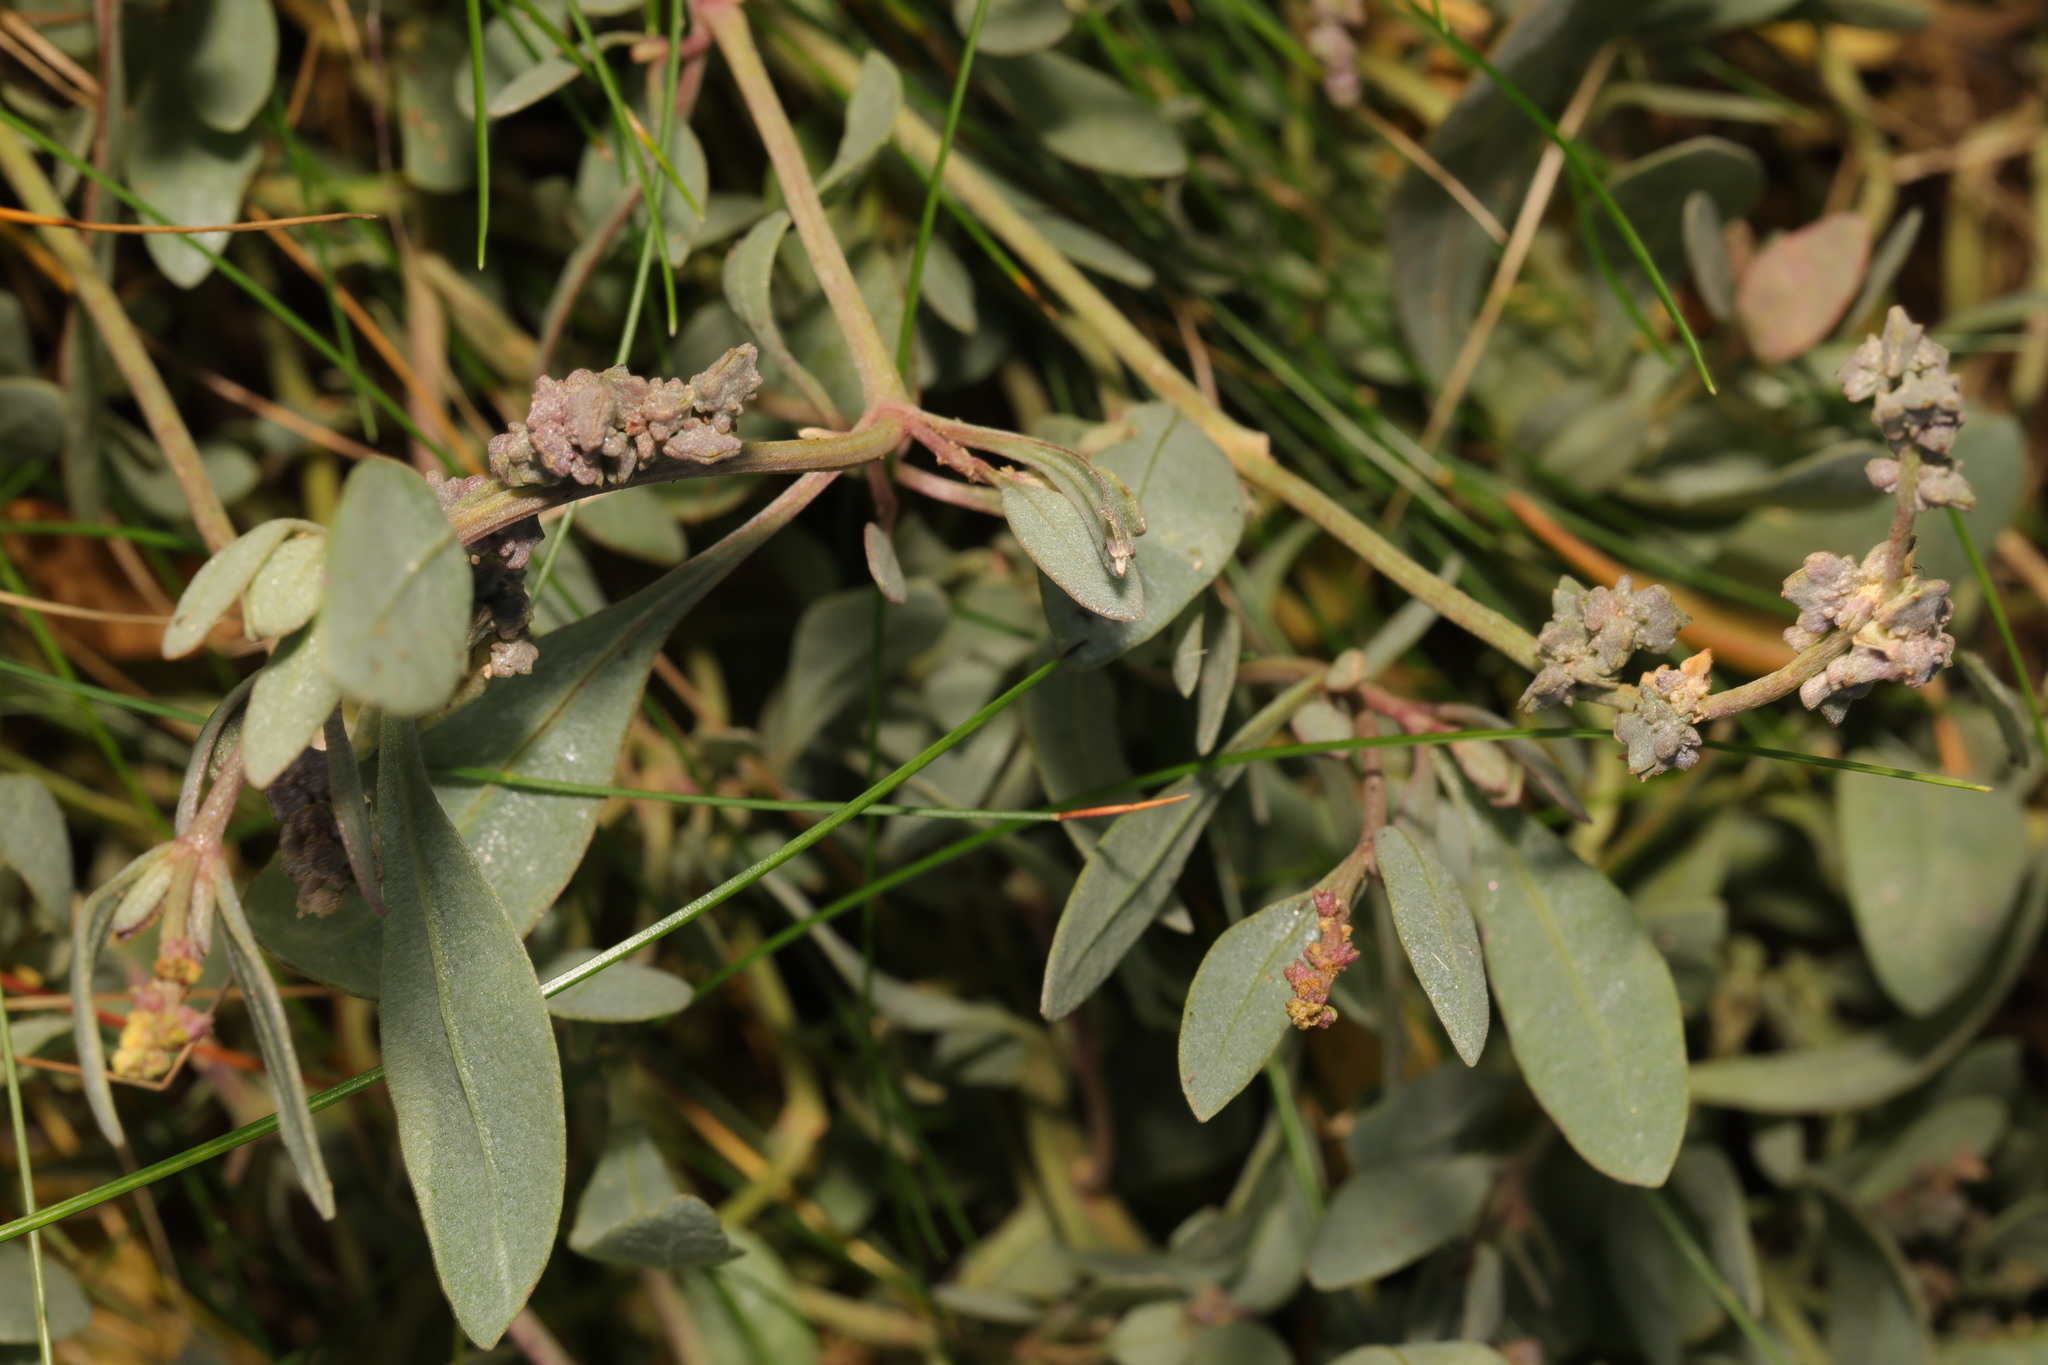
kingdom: Plantae
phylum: Tracheophyta
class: Magnoliopsida
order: Caryophyllales
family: Amaranthaceae
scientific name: Amaranthaceae
